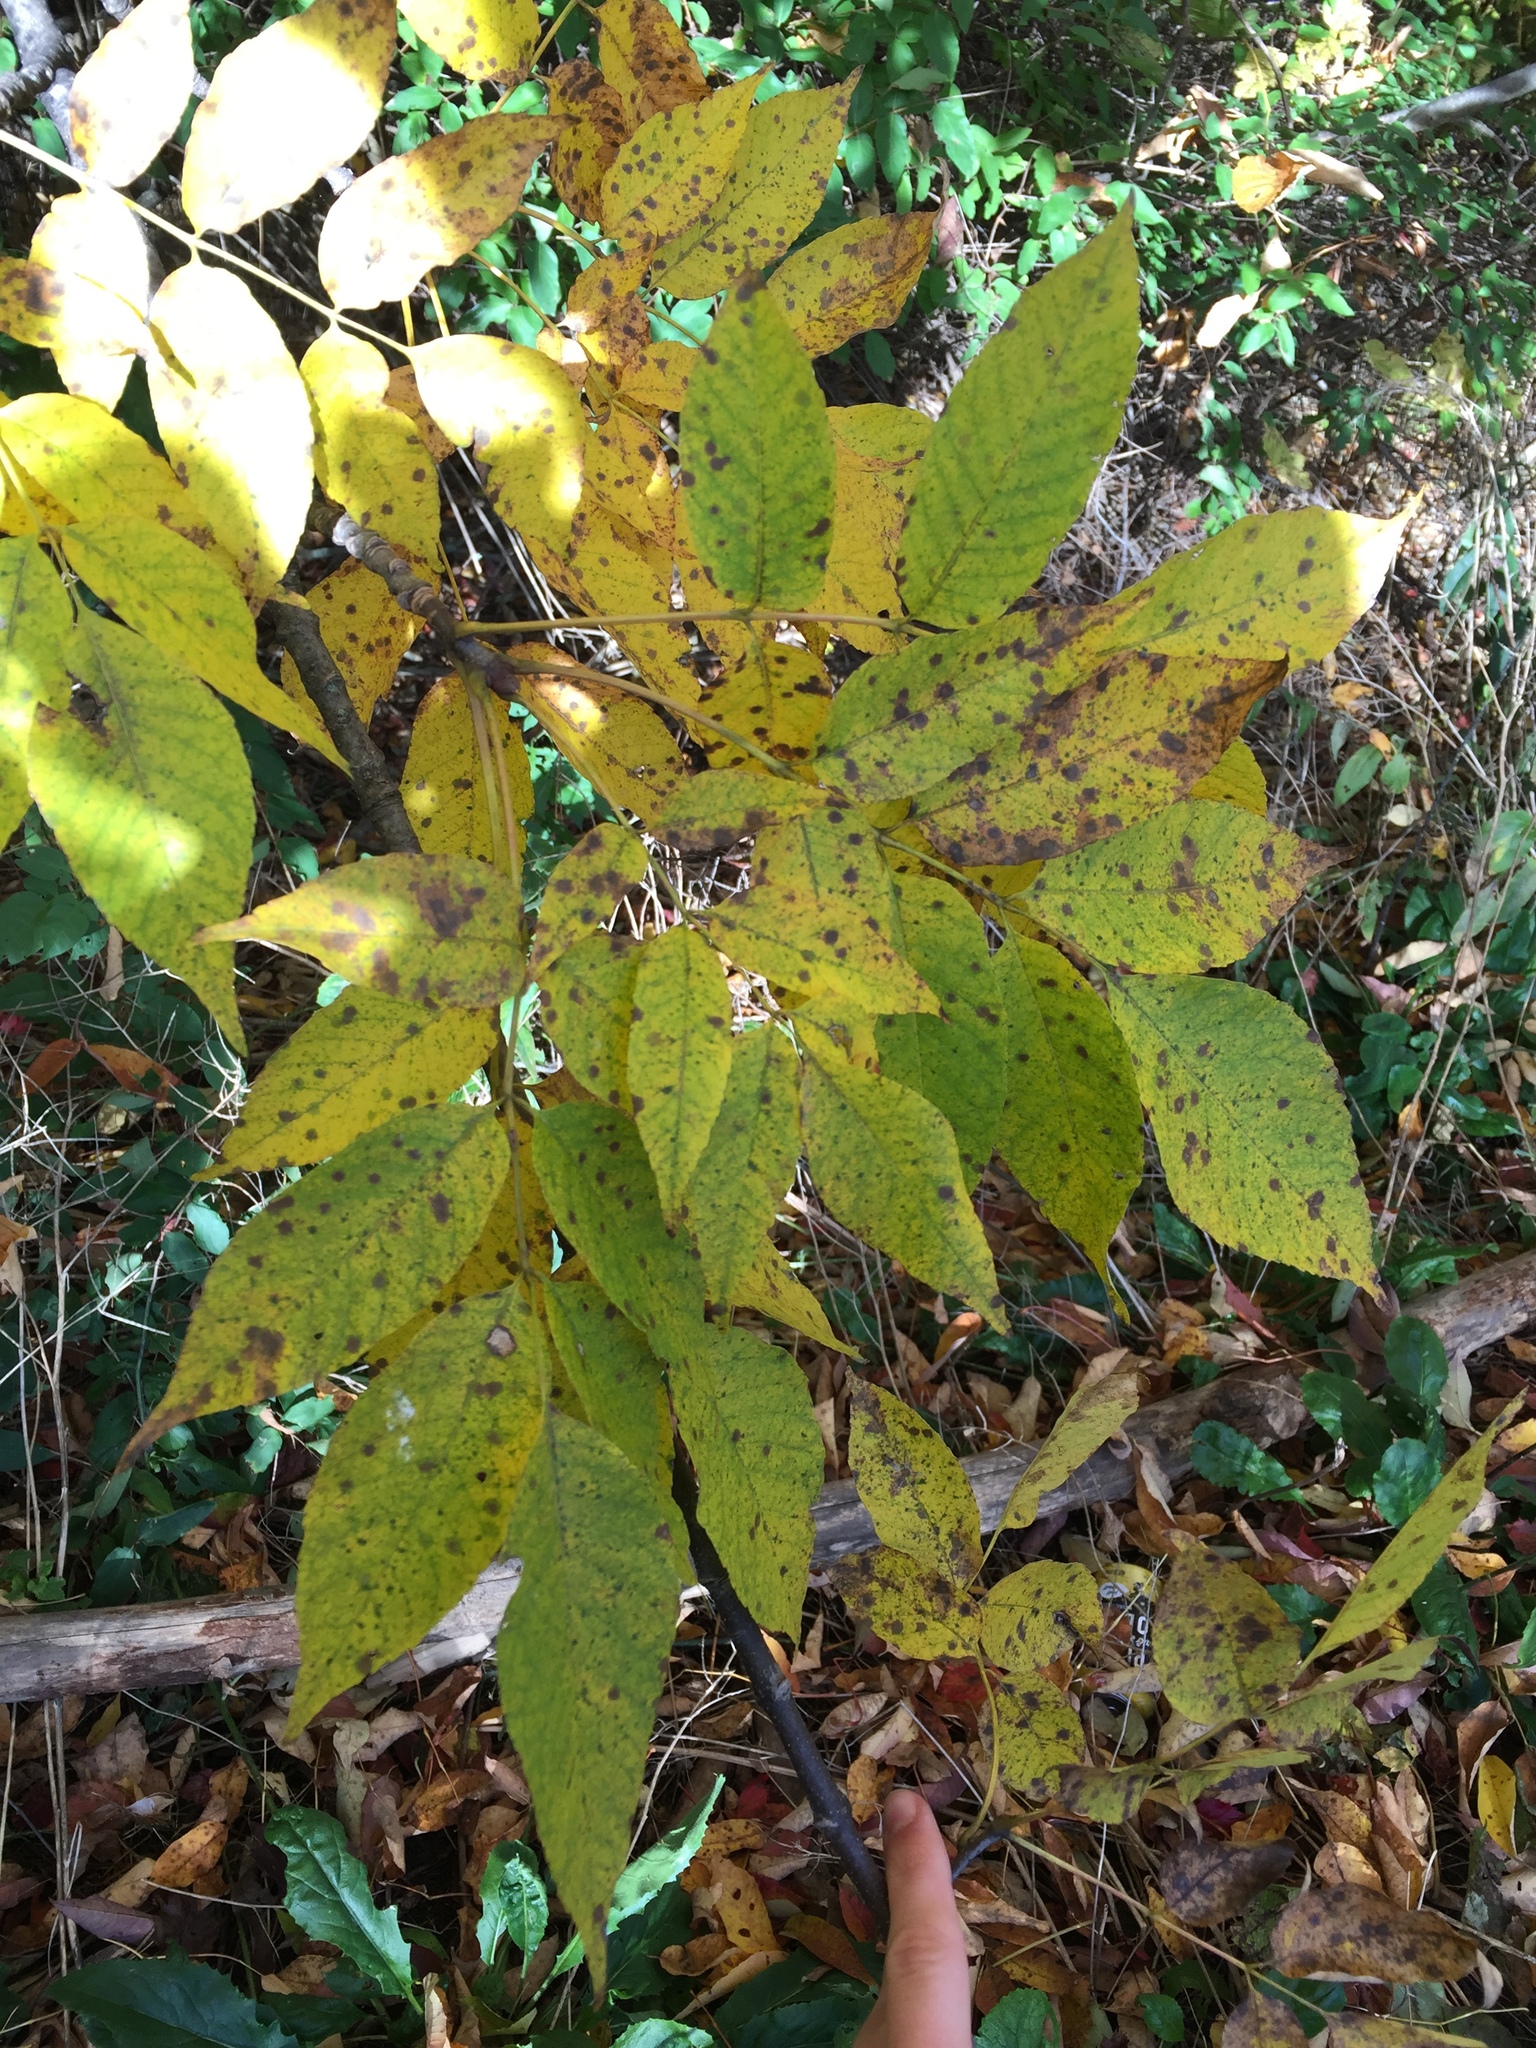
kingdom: Plantae
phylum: Tracheophyta
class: Magnoliopsida
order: Lamiales
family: Oleaceae
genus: Fraxinus
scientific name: Fraxinus americana
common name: White ash
